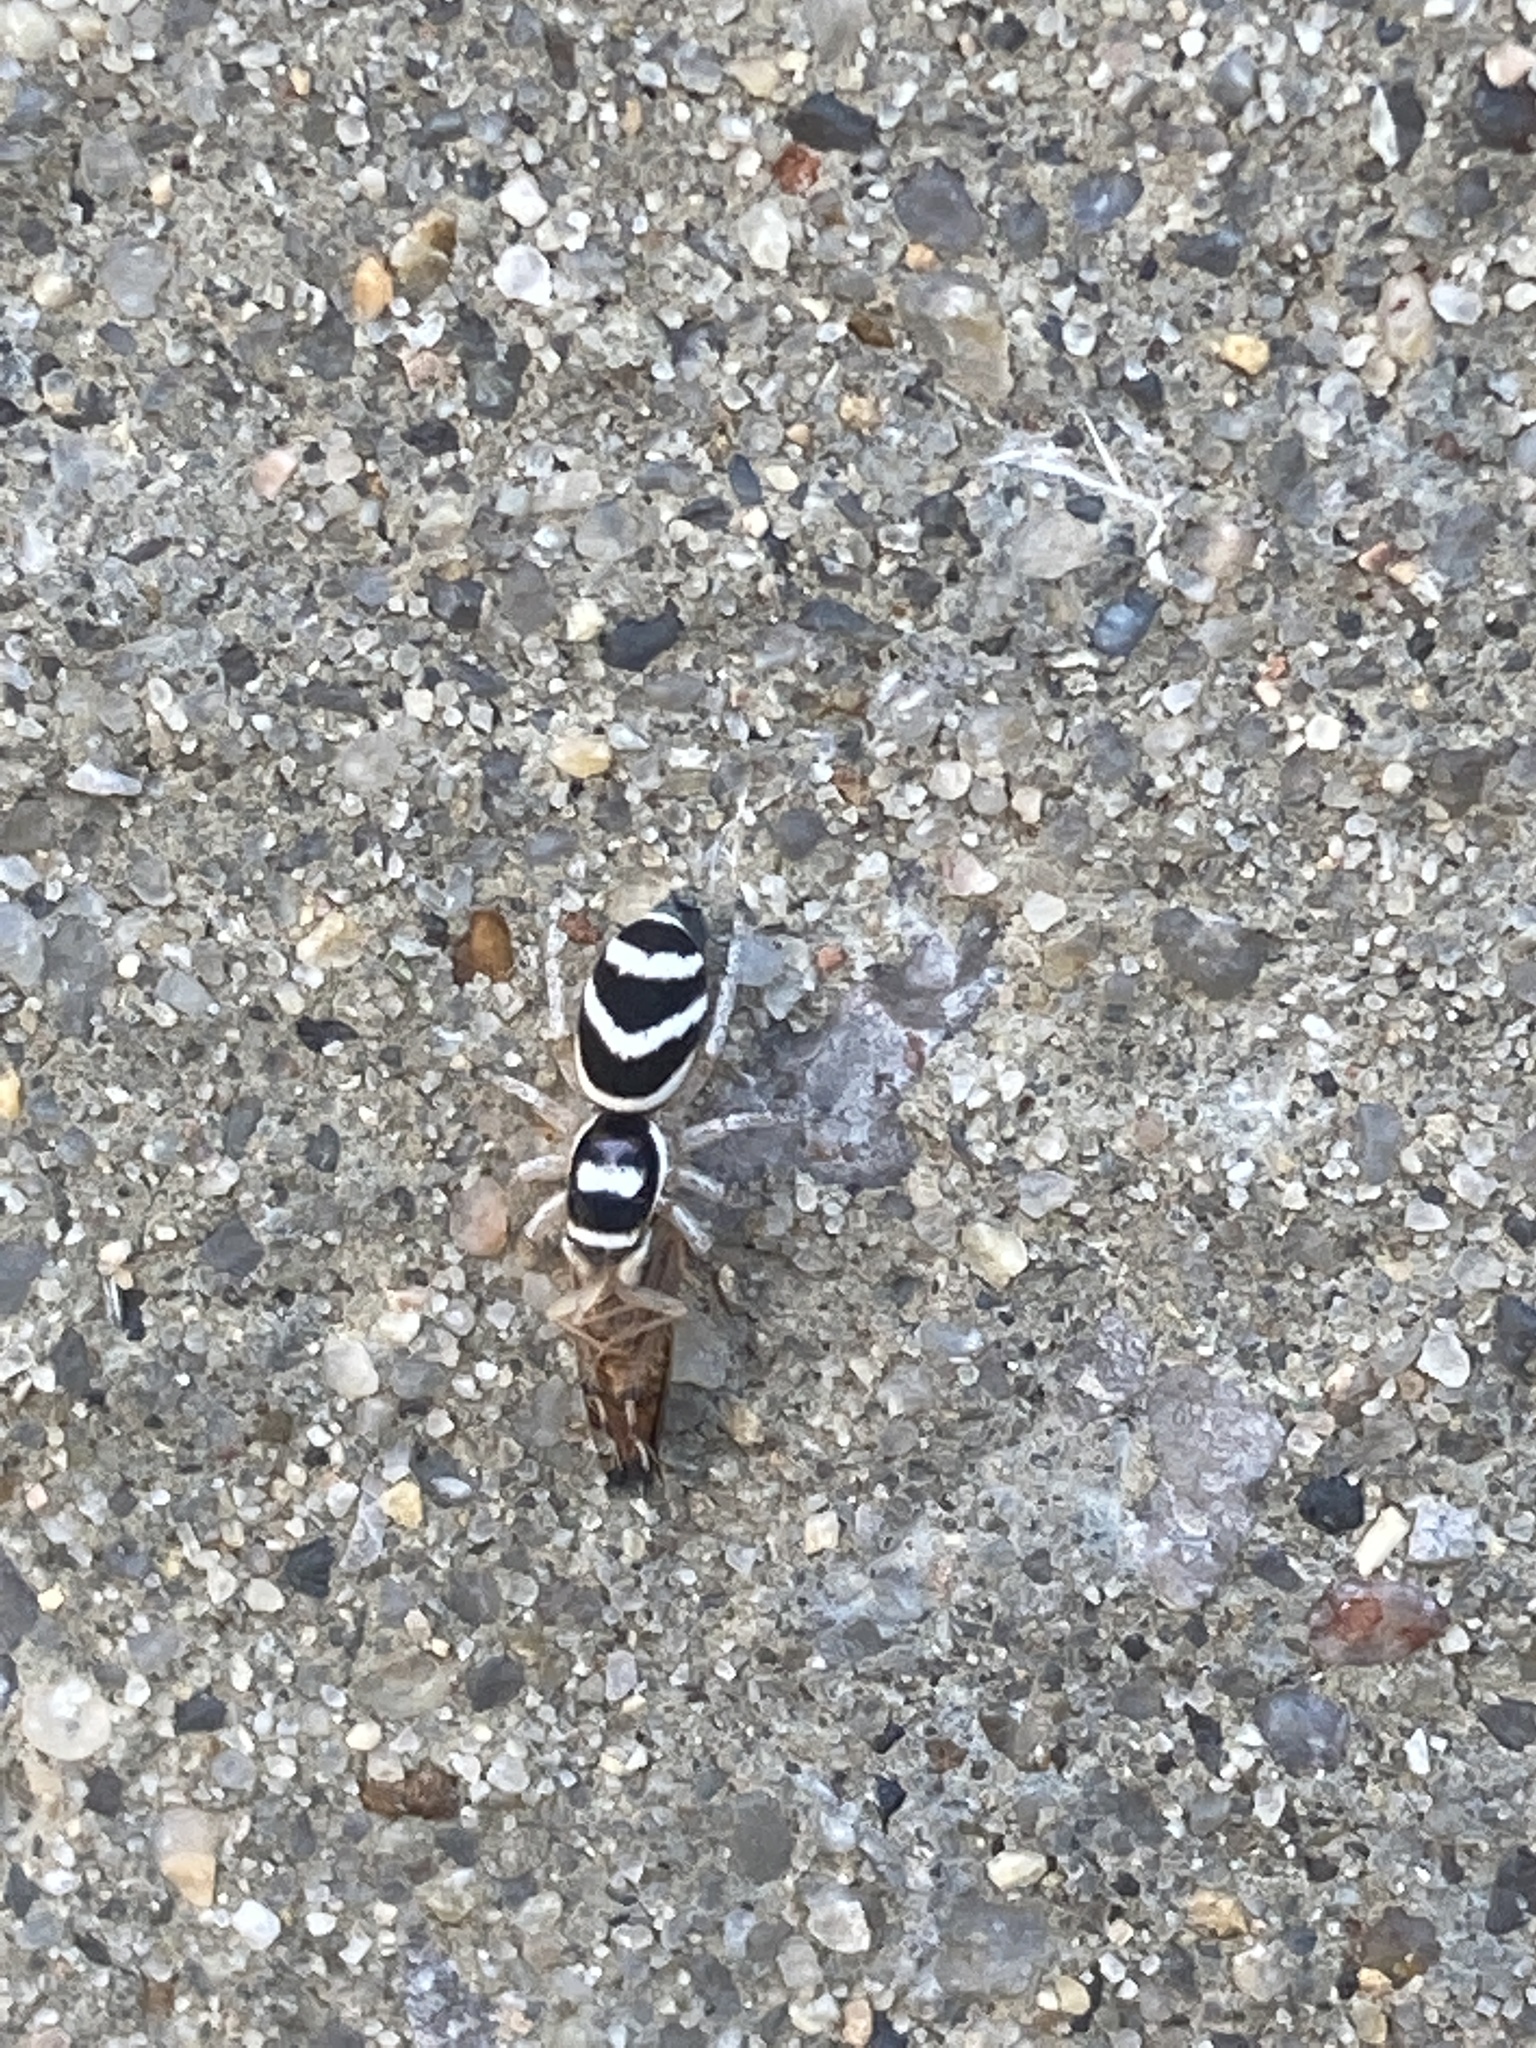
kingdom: Animalia
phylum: Arthropoda
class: Arachnida
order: Araneae
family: Salticidae
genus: Salticus
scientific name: Salticus austinensis
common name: Jumping spiders
